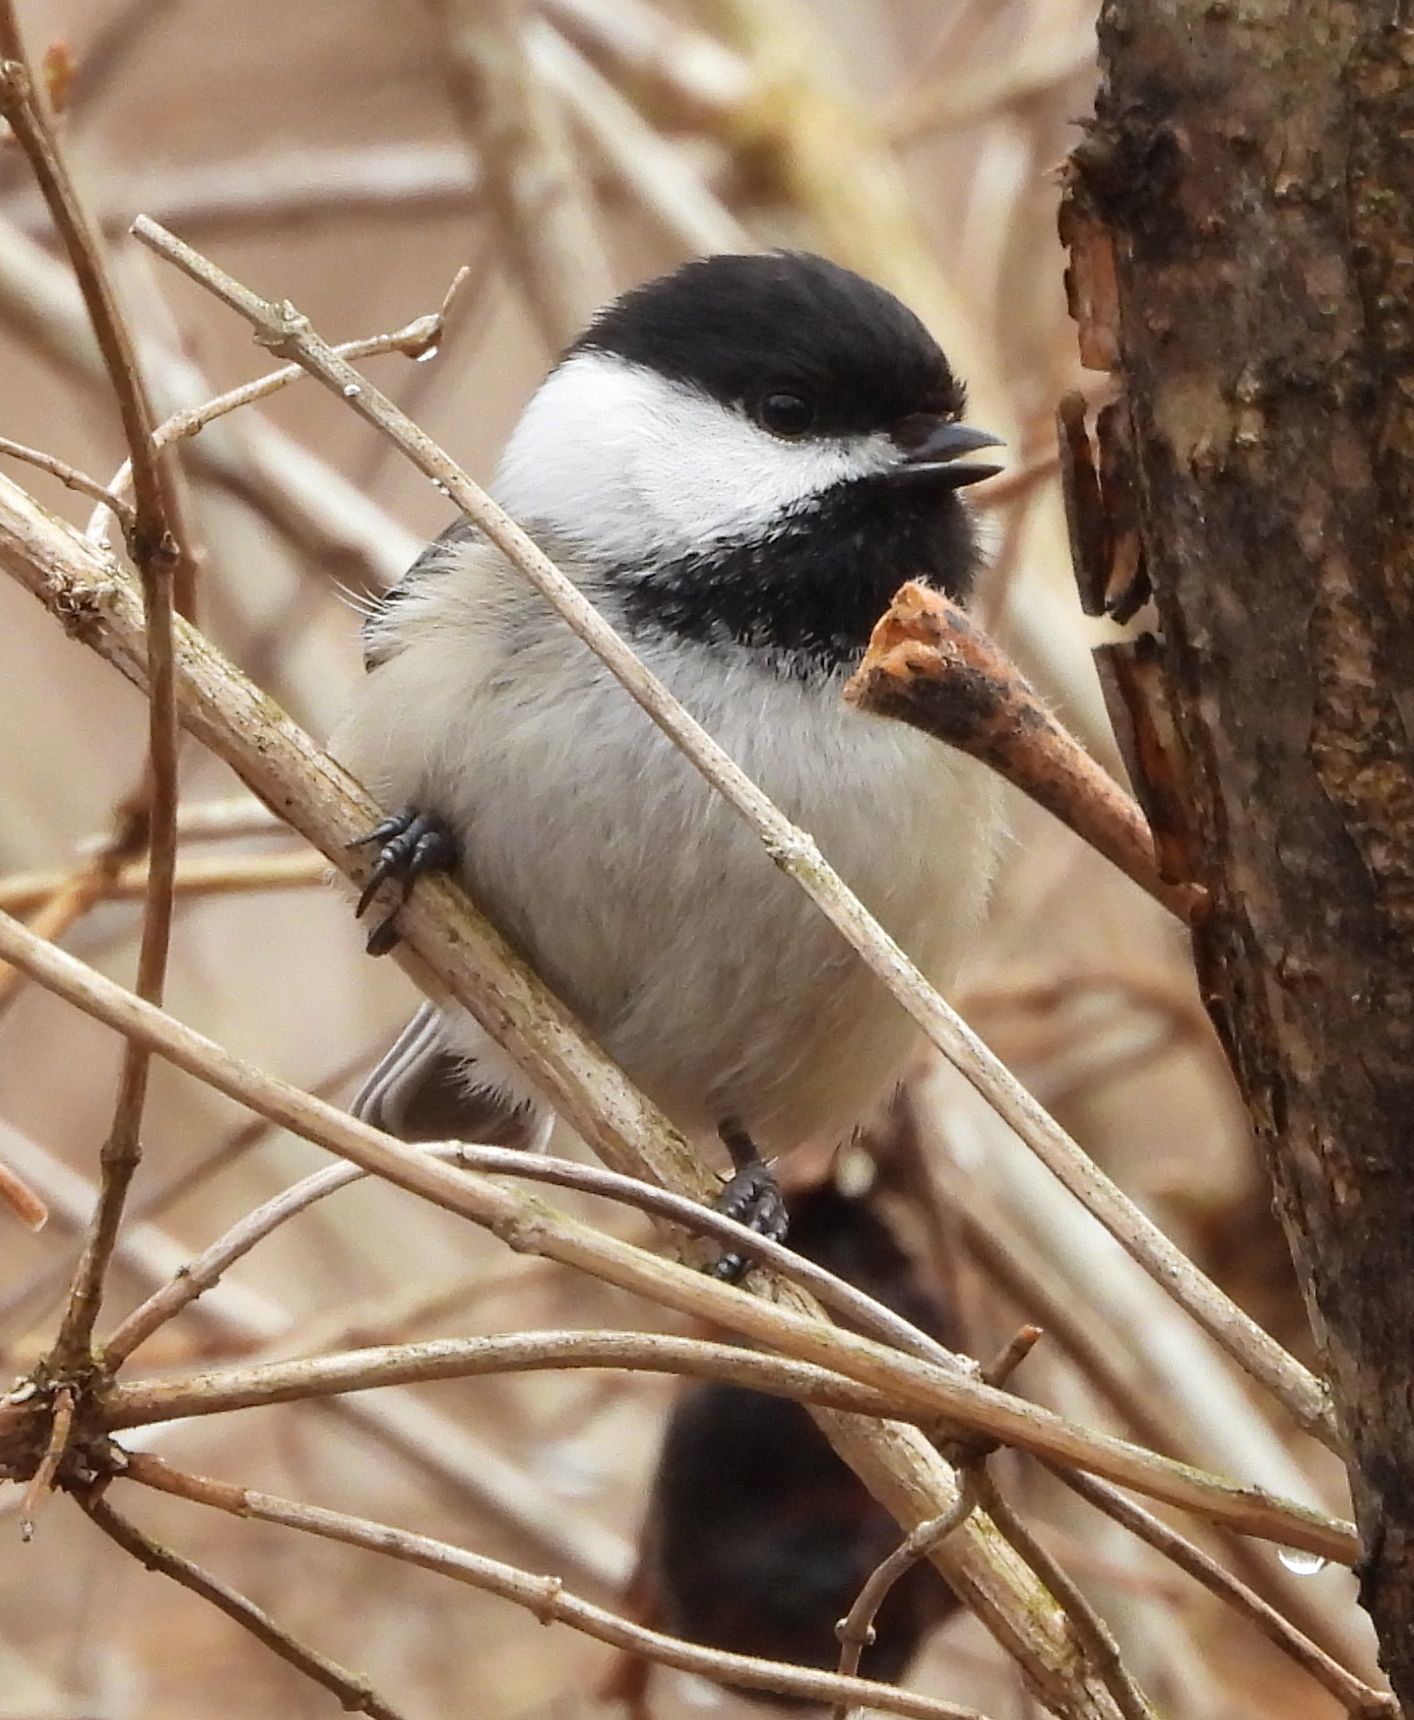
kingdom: Animalia
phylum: Chordata
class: Aves
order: Passeriformes
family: Paridae
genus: Poecile
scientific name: Poecile atricapillus
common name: Black-capped chickadee
